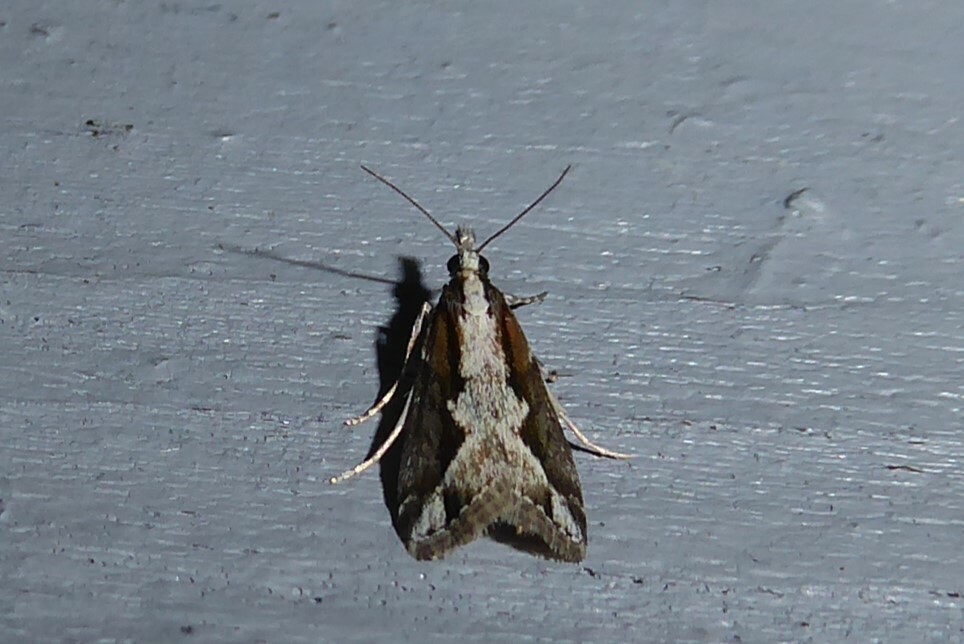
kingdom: Animalia
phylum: Arthropoda
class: Insecta
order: Lepidoptera
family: Crambidae
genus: Eudonia
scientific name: Eudonia steropaea
